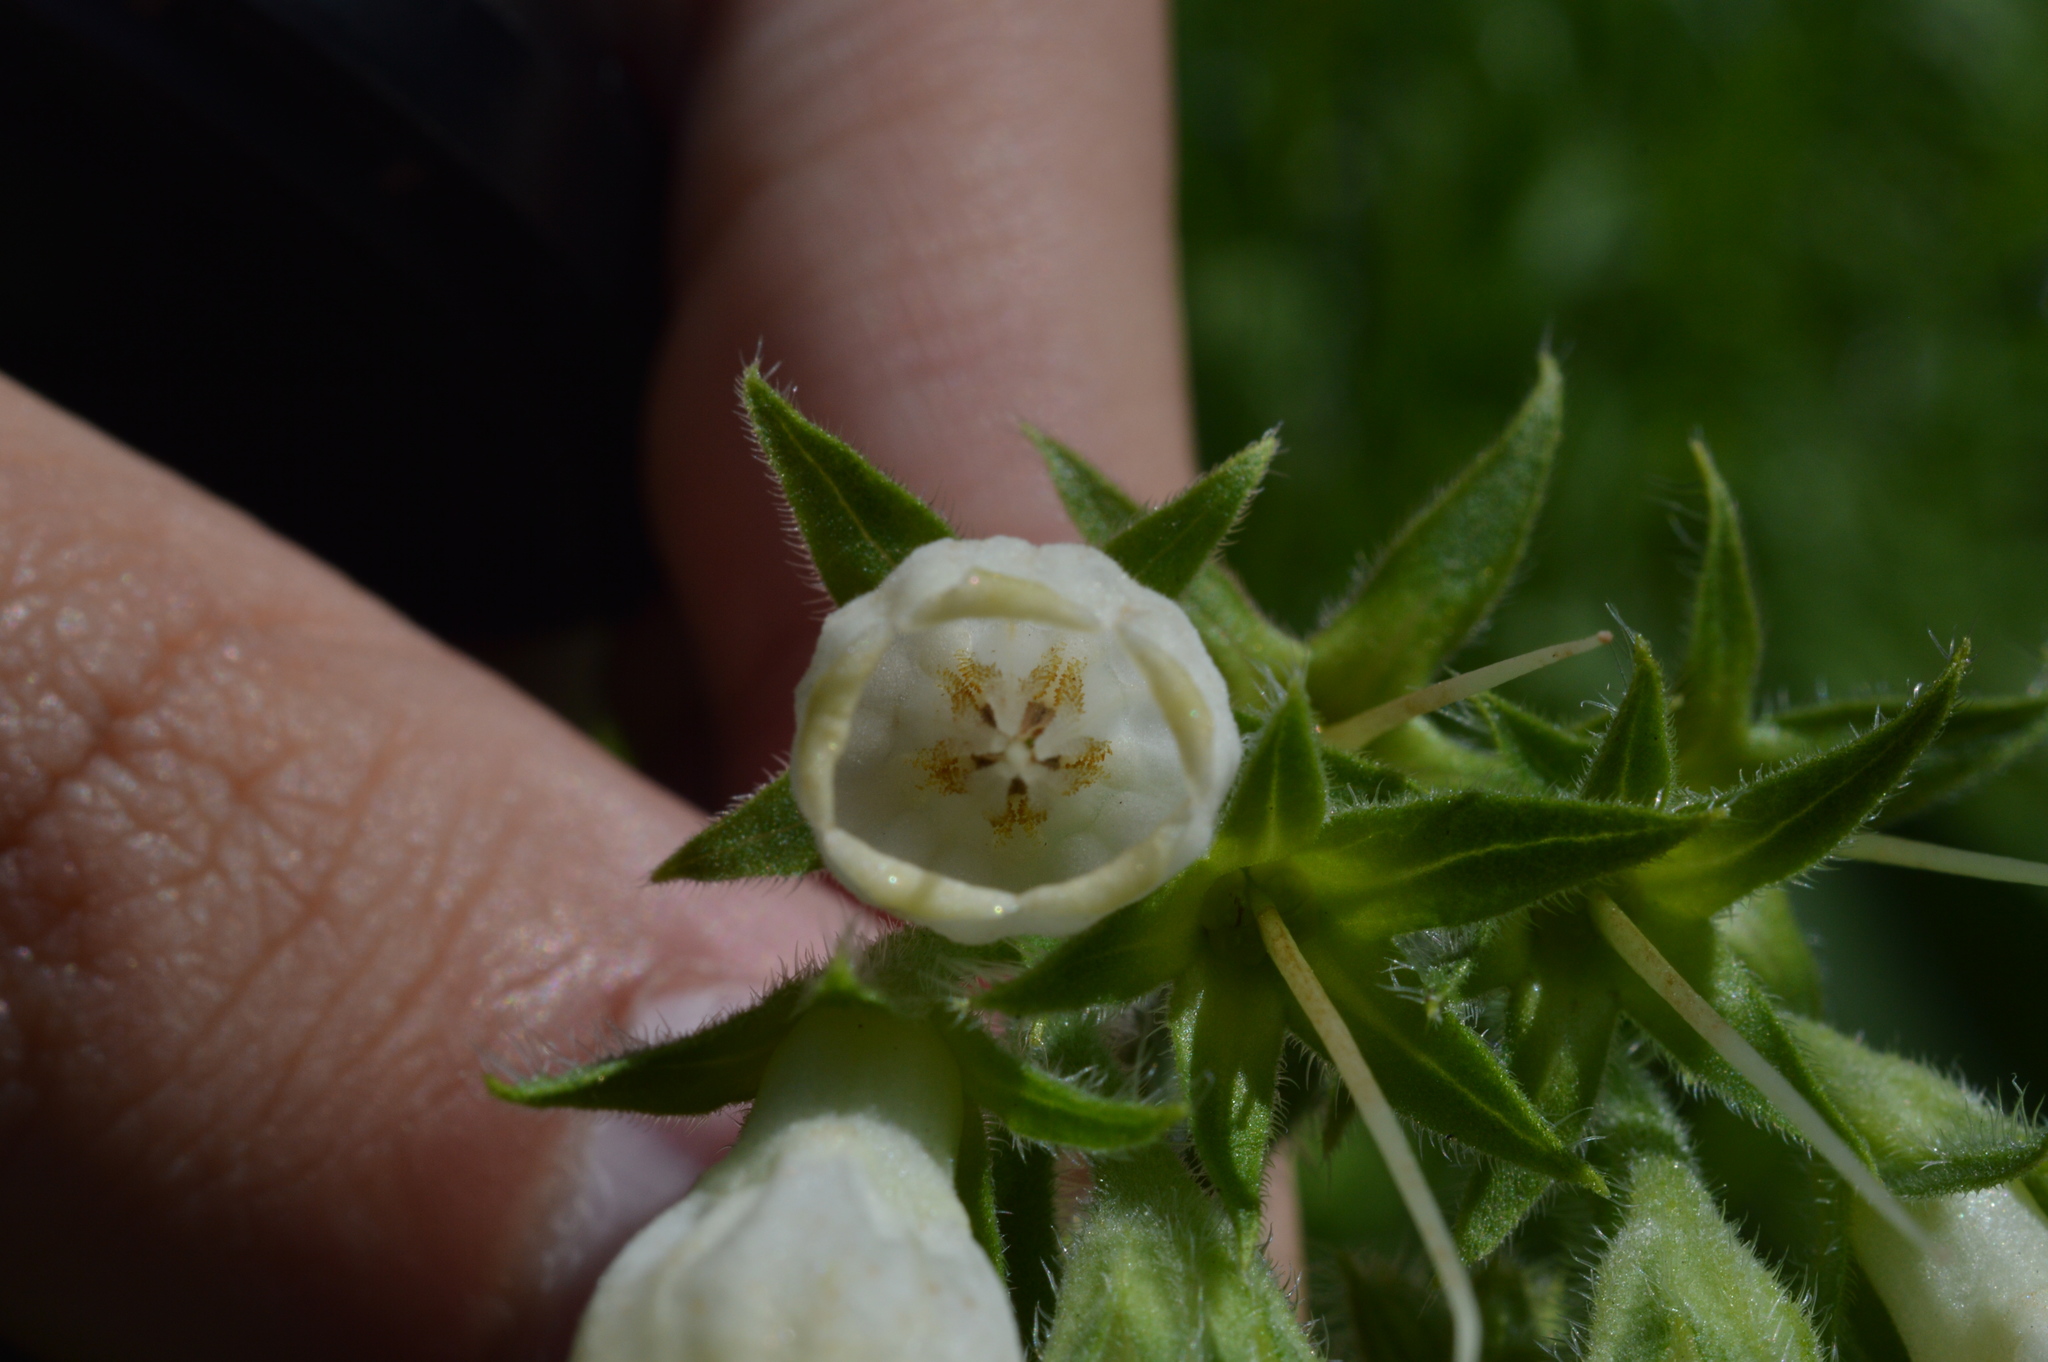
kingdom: Plantae
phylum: Tracheophyta
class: Magnoliopsida
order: Boraginales
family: Boraginaceae
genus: Symphytum
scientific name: Symphytum officinale
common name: Common comfrey
